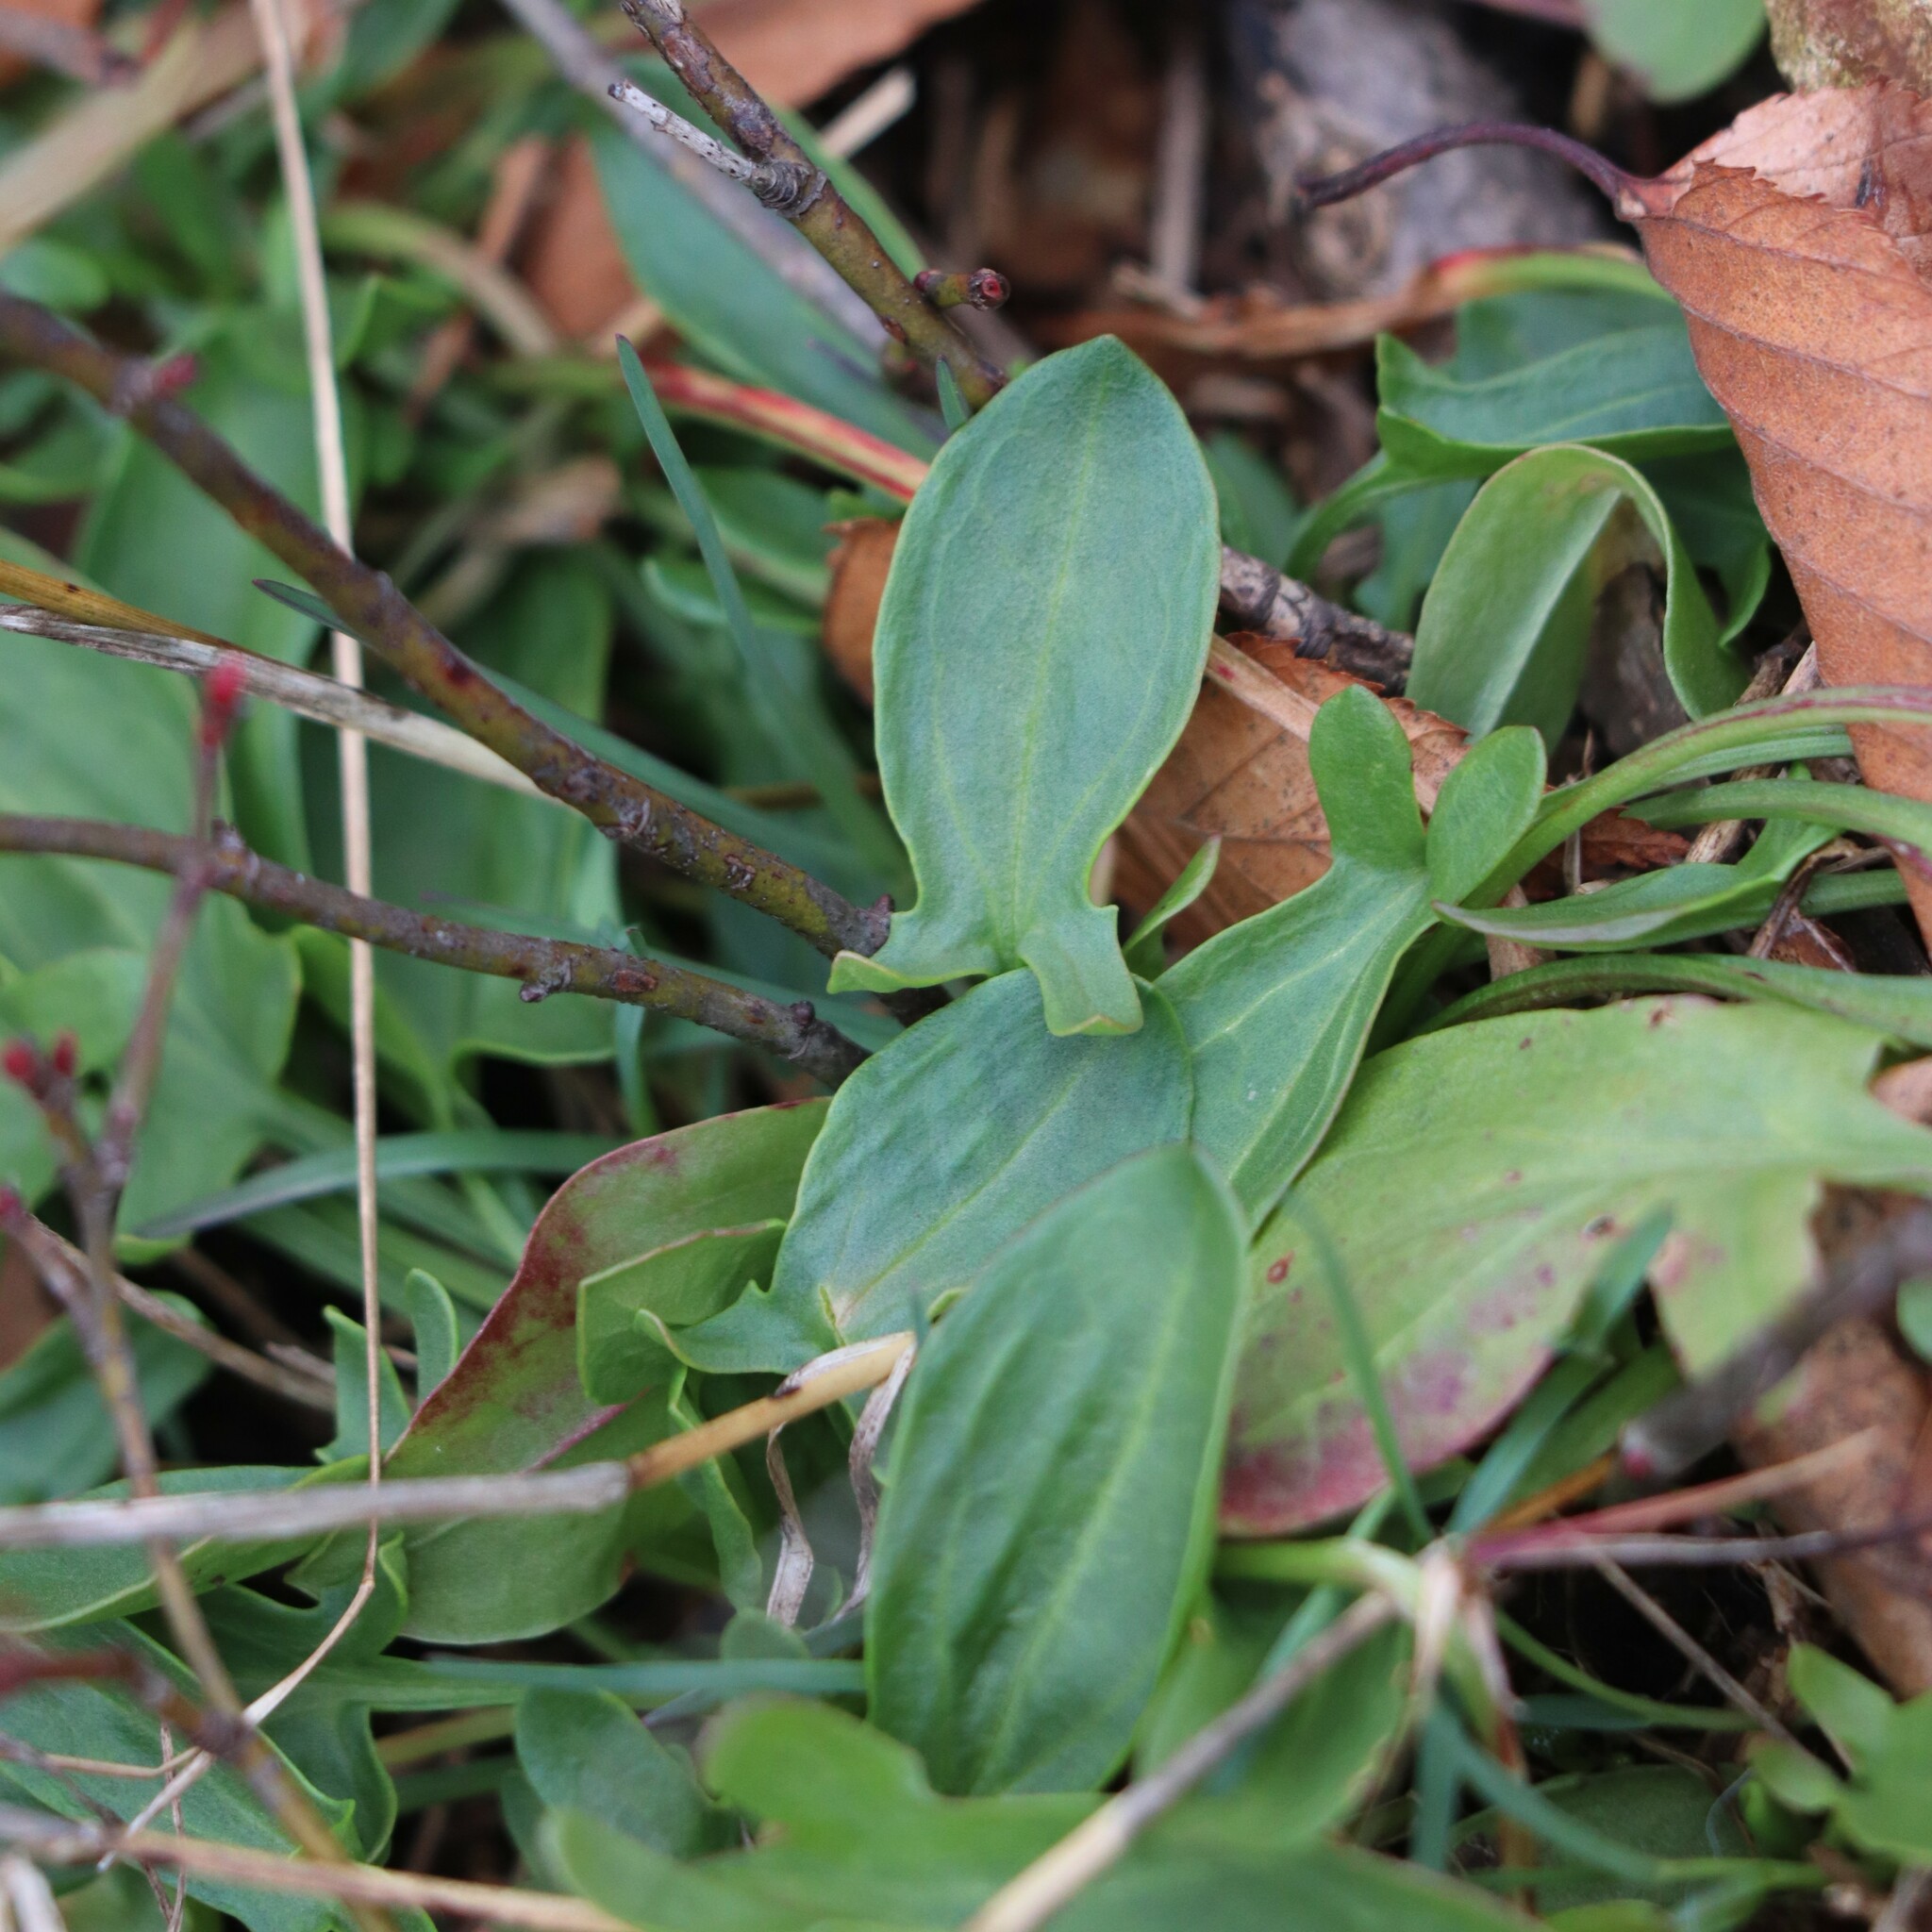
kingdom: Plantae
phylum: Tracheophyta
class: Magnoliopsida
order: Caryophyllales
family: Polygonaceae
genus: Rumex
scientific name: Rumex acetosella
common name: Common sheep sorrel
